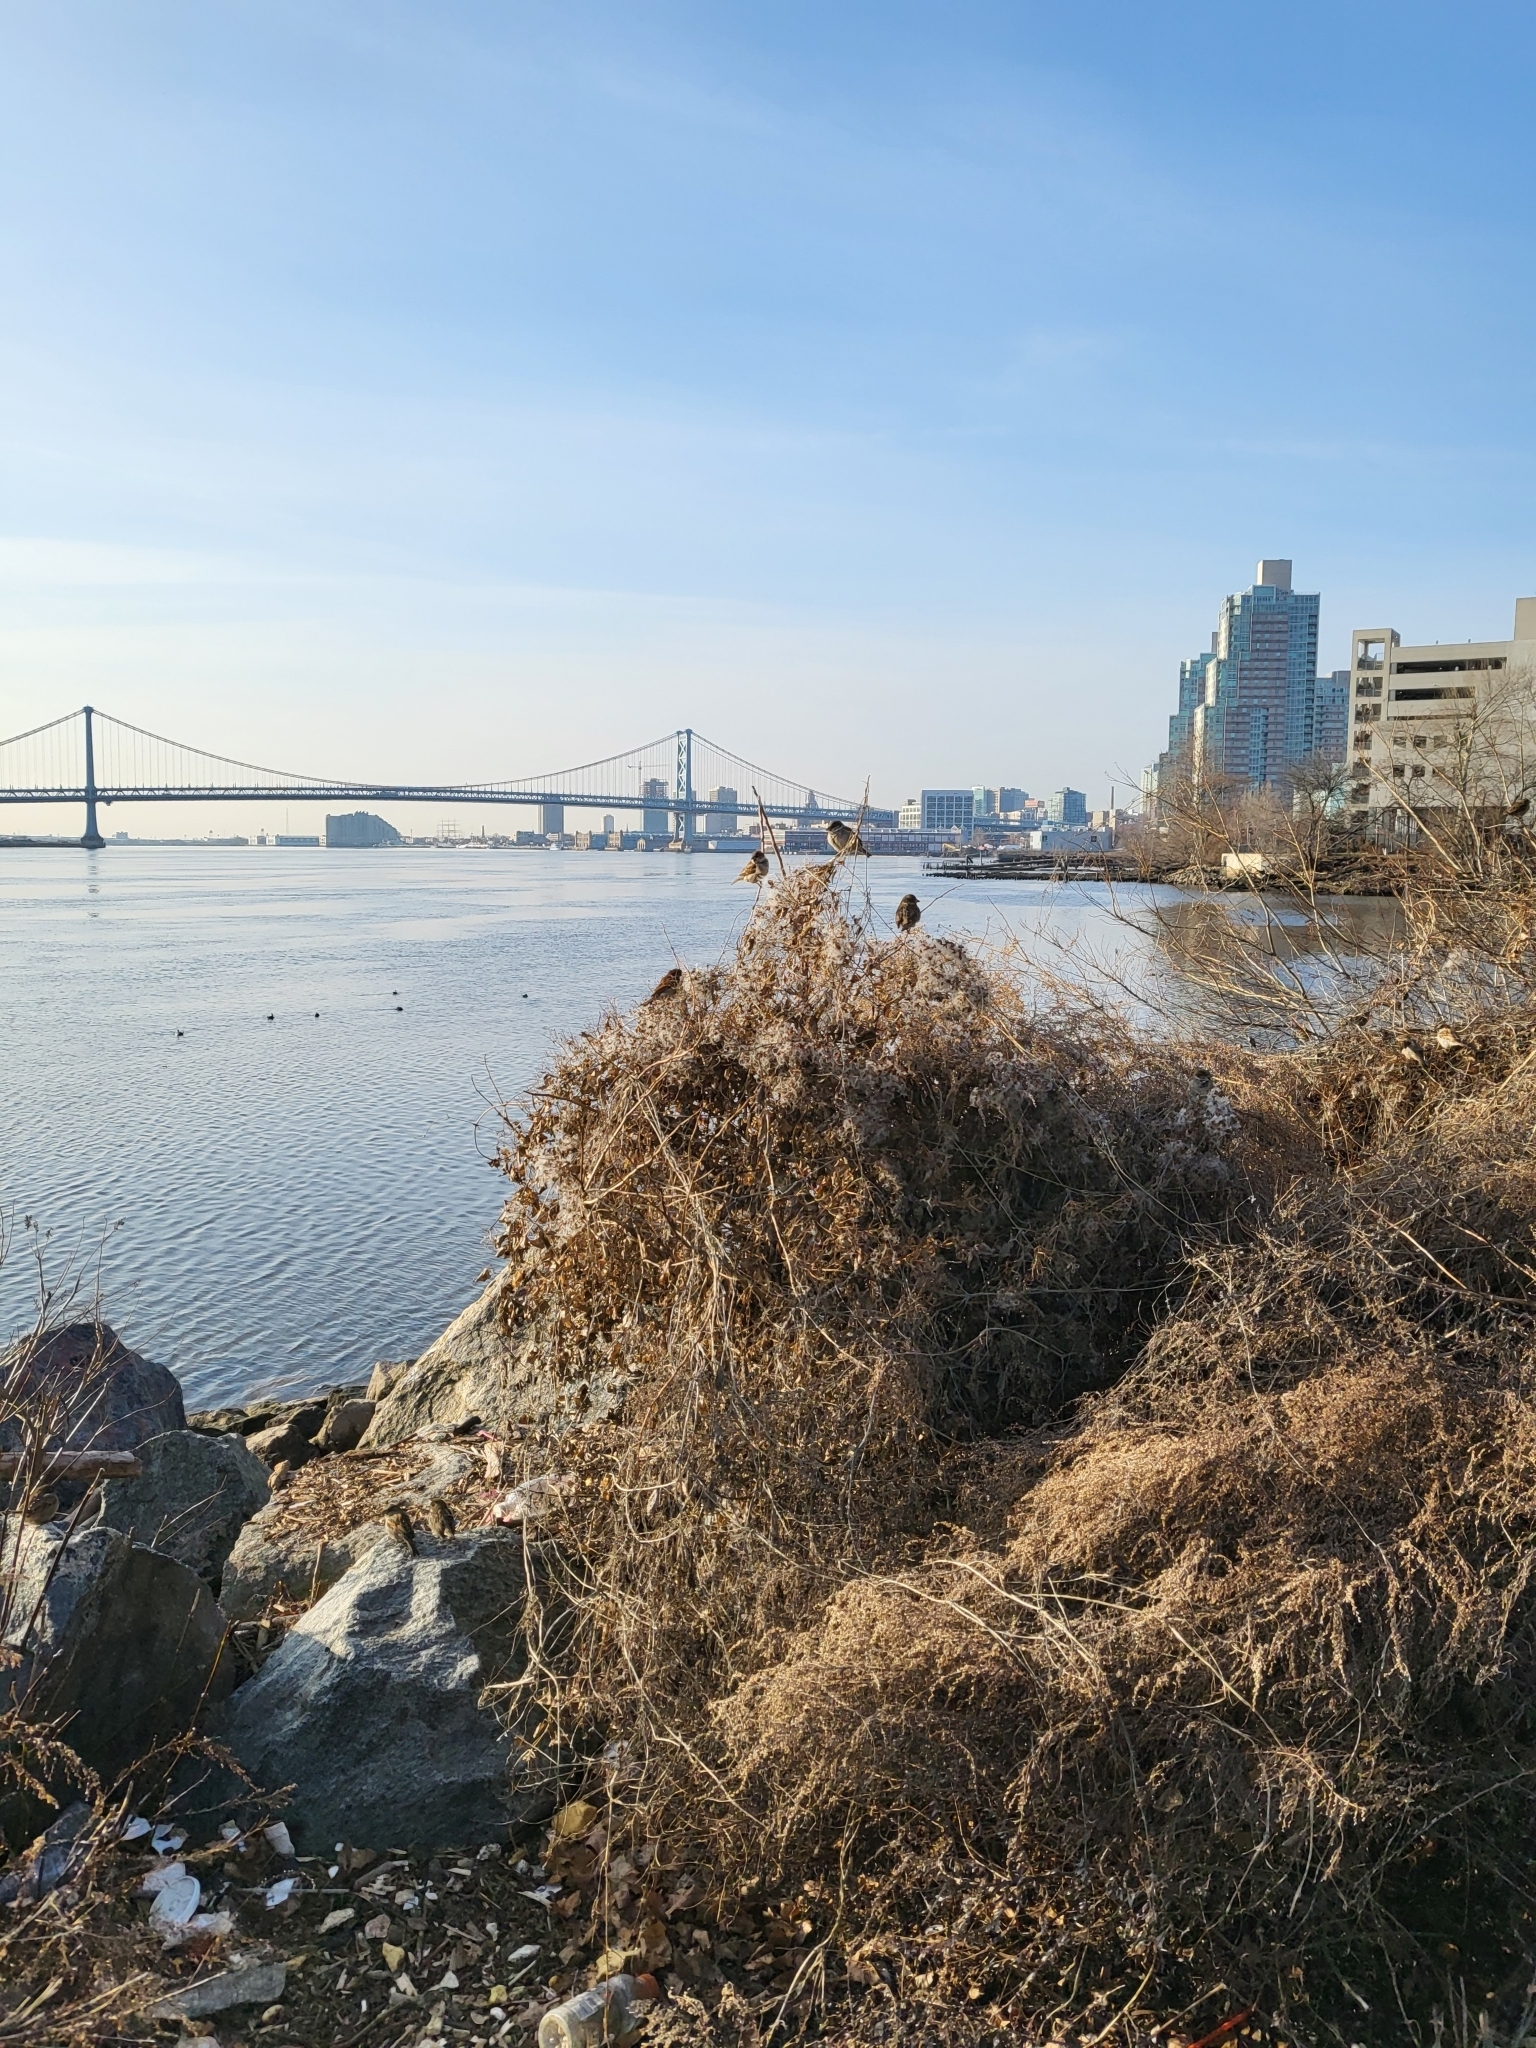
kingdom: Animalia
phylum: Chordata
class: Aves
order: Passeriformes
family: Passeridae
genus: Passer
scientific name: Passer domesticus
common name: House sparrow
